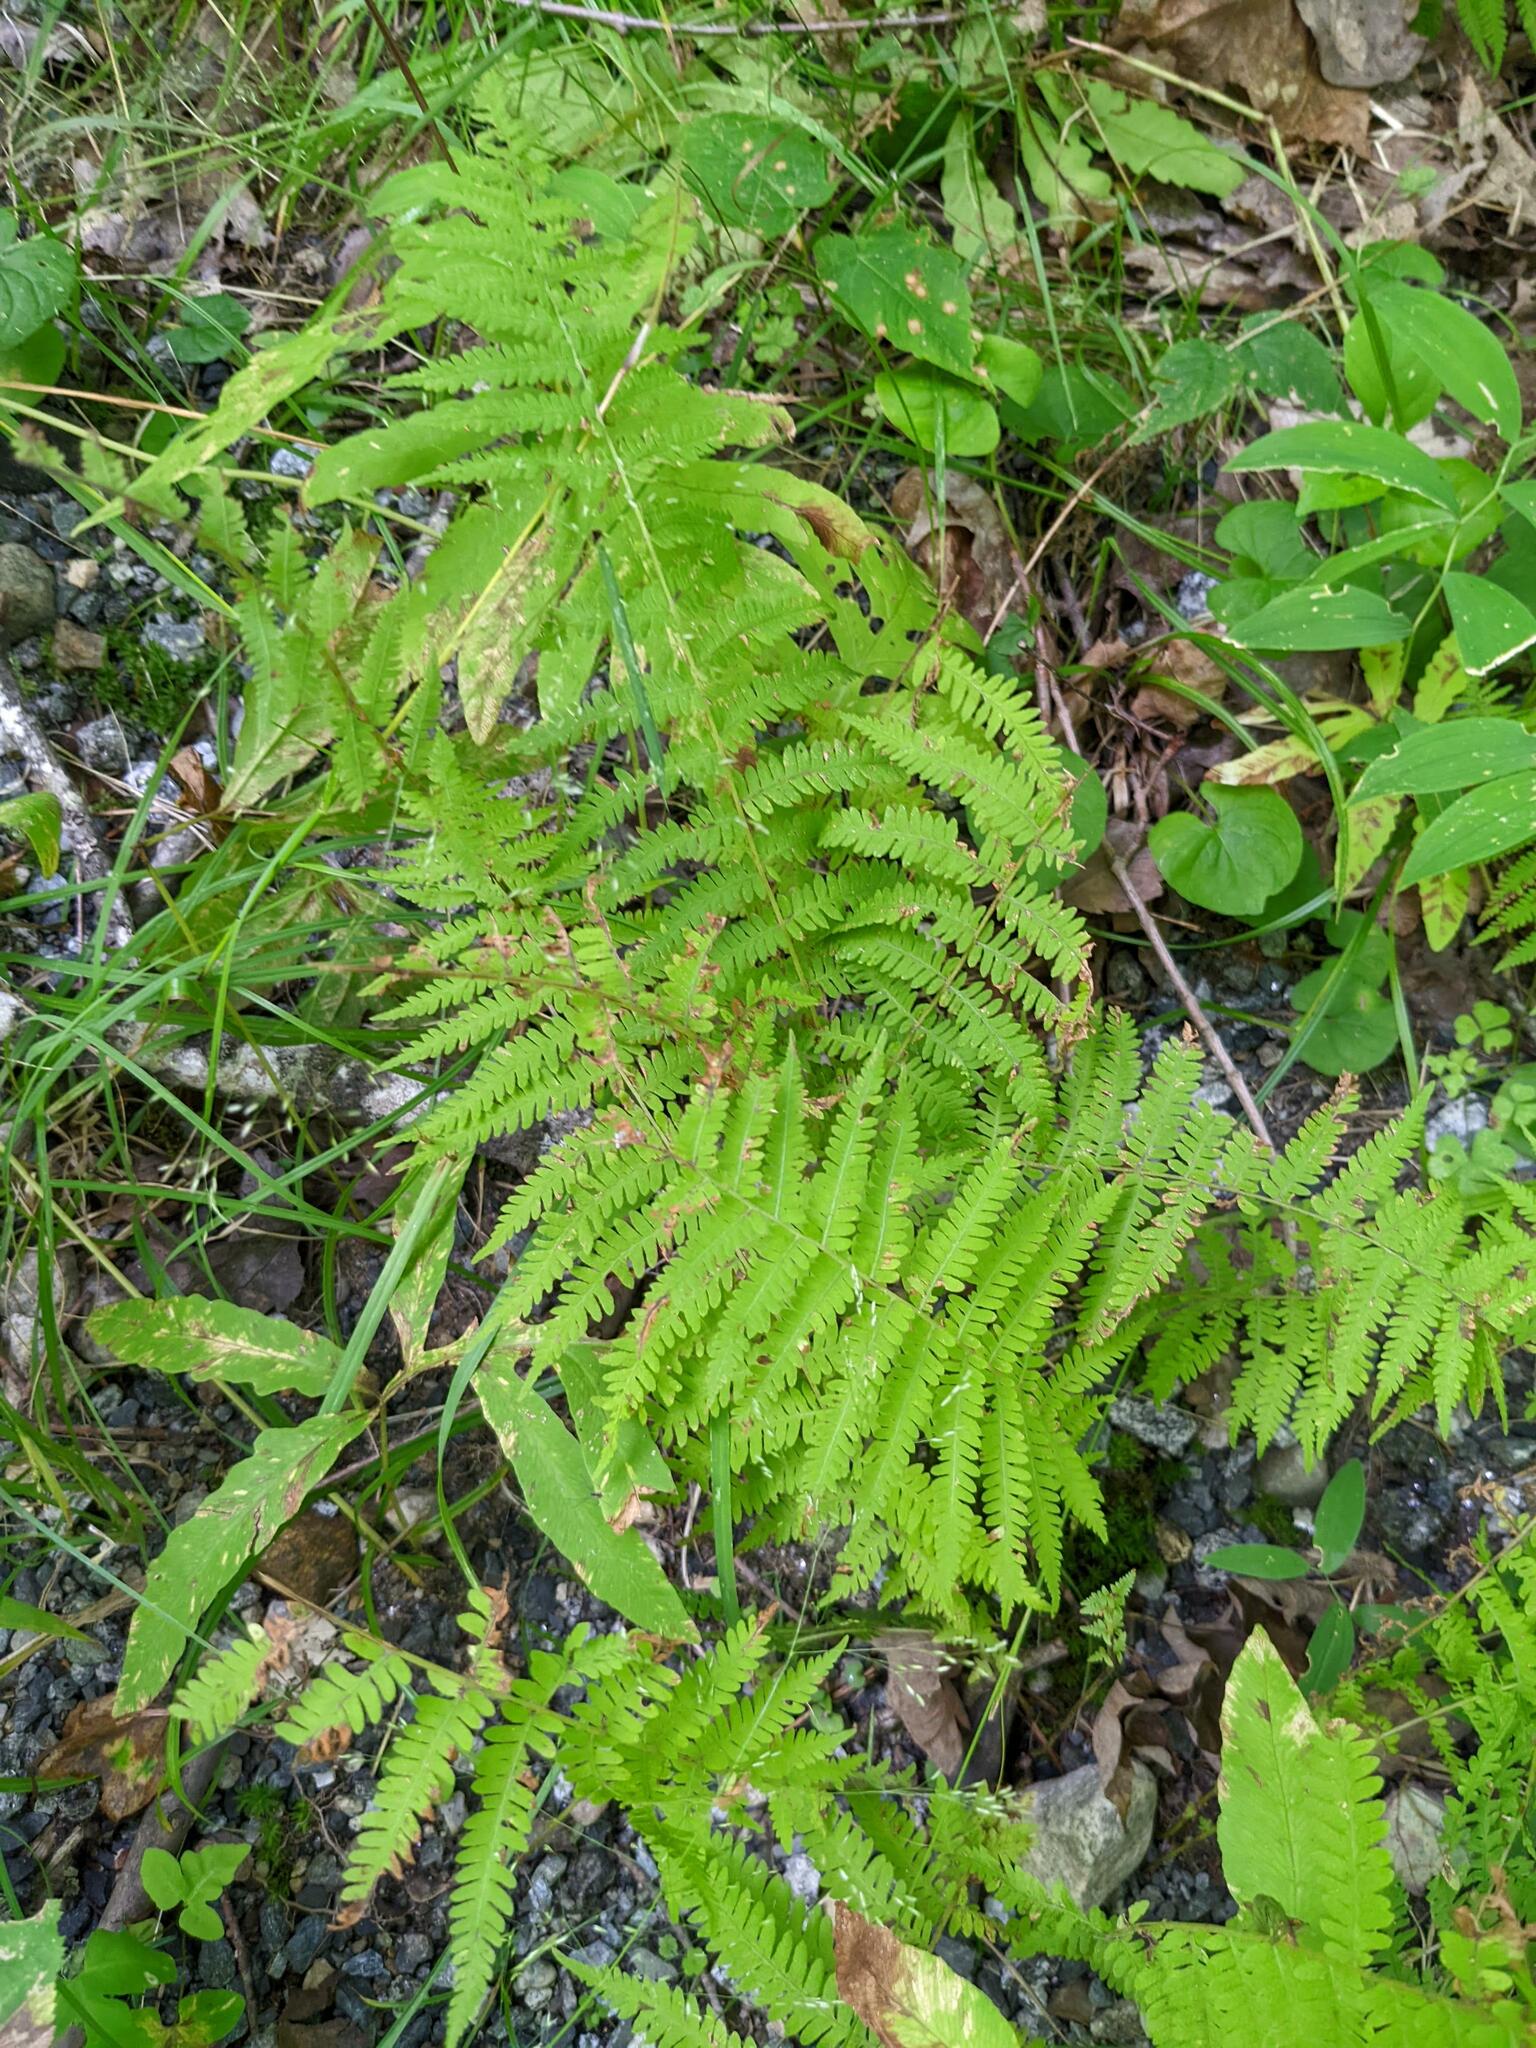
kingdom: Plantae
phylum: Tracheophyta
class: Polypodiopsida
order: Polypodiales
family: Thelypteridaceae
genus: Amauropelta
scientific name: Amauropelta noveboracensis
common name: New york fern
